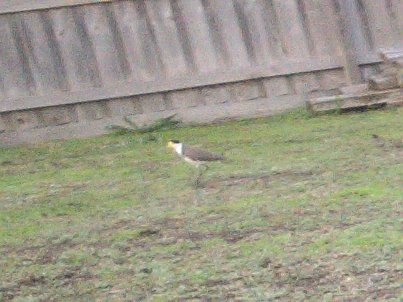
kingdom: Animalia
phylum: Chordata
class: Aves
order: Charadriiformes
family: Charadriidae
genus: Vanellus
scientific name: Vanellus miles
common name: Masked lapwing
